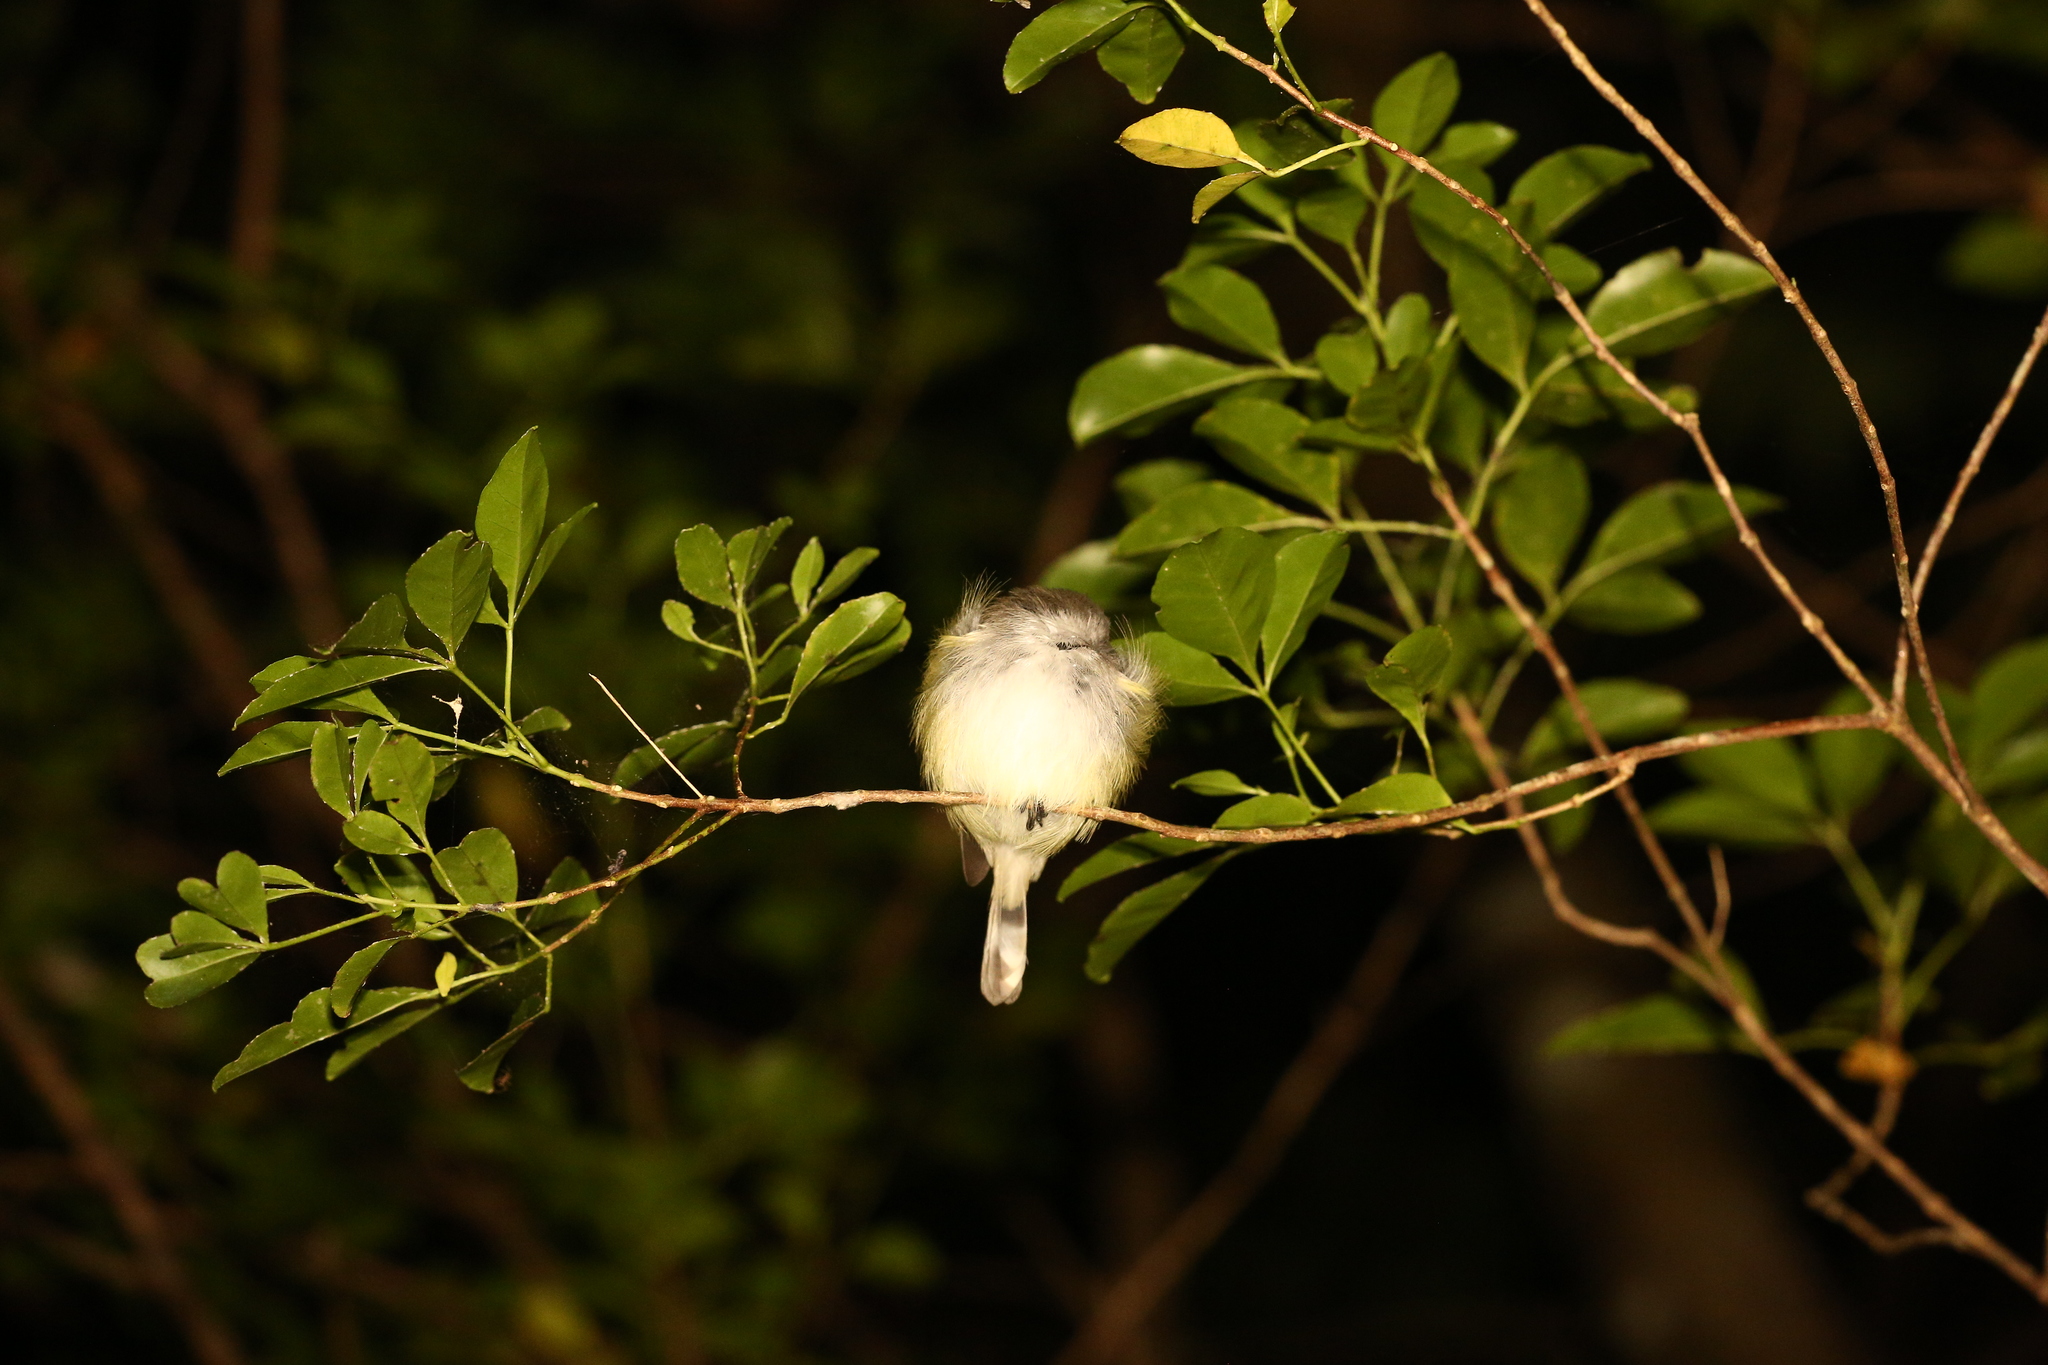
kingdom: Animalia
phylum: Chordata
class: Aves
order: Passeriformes
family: Acanthizidae
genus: Gerygone
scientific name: Gerygone flavolateralis
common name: Fan-tailed gerygone
